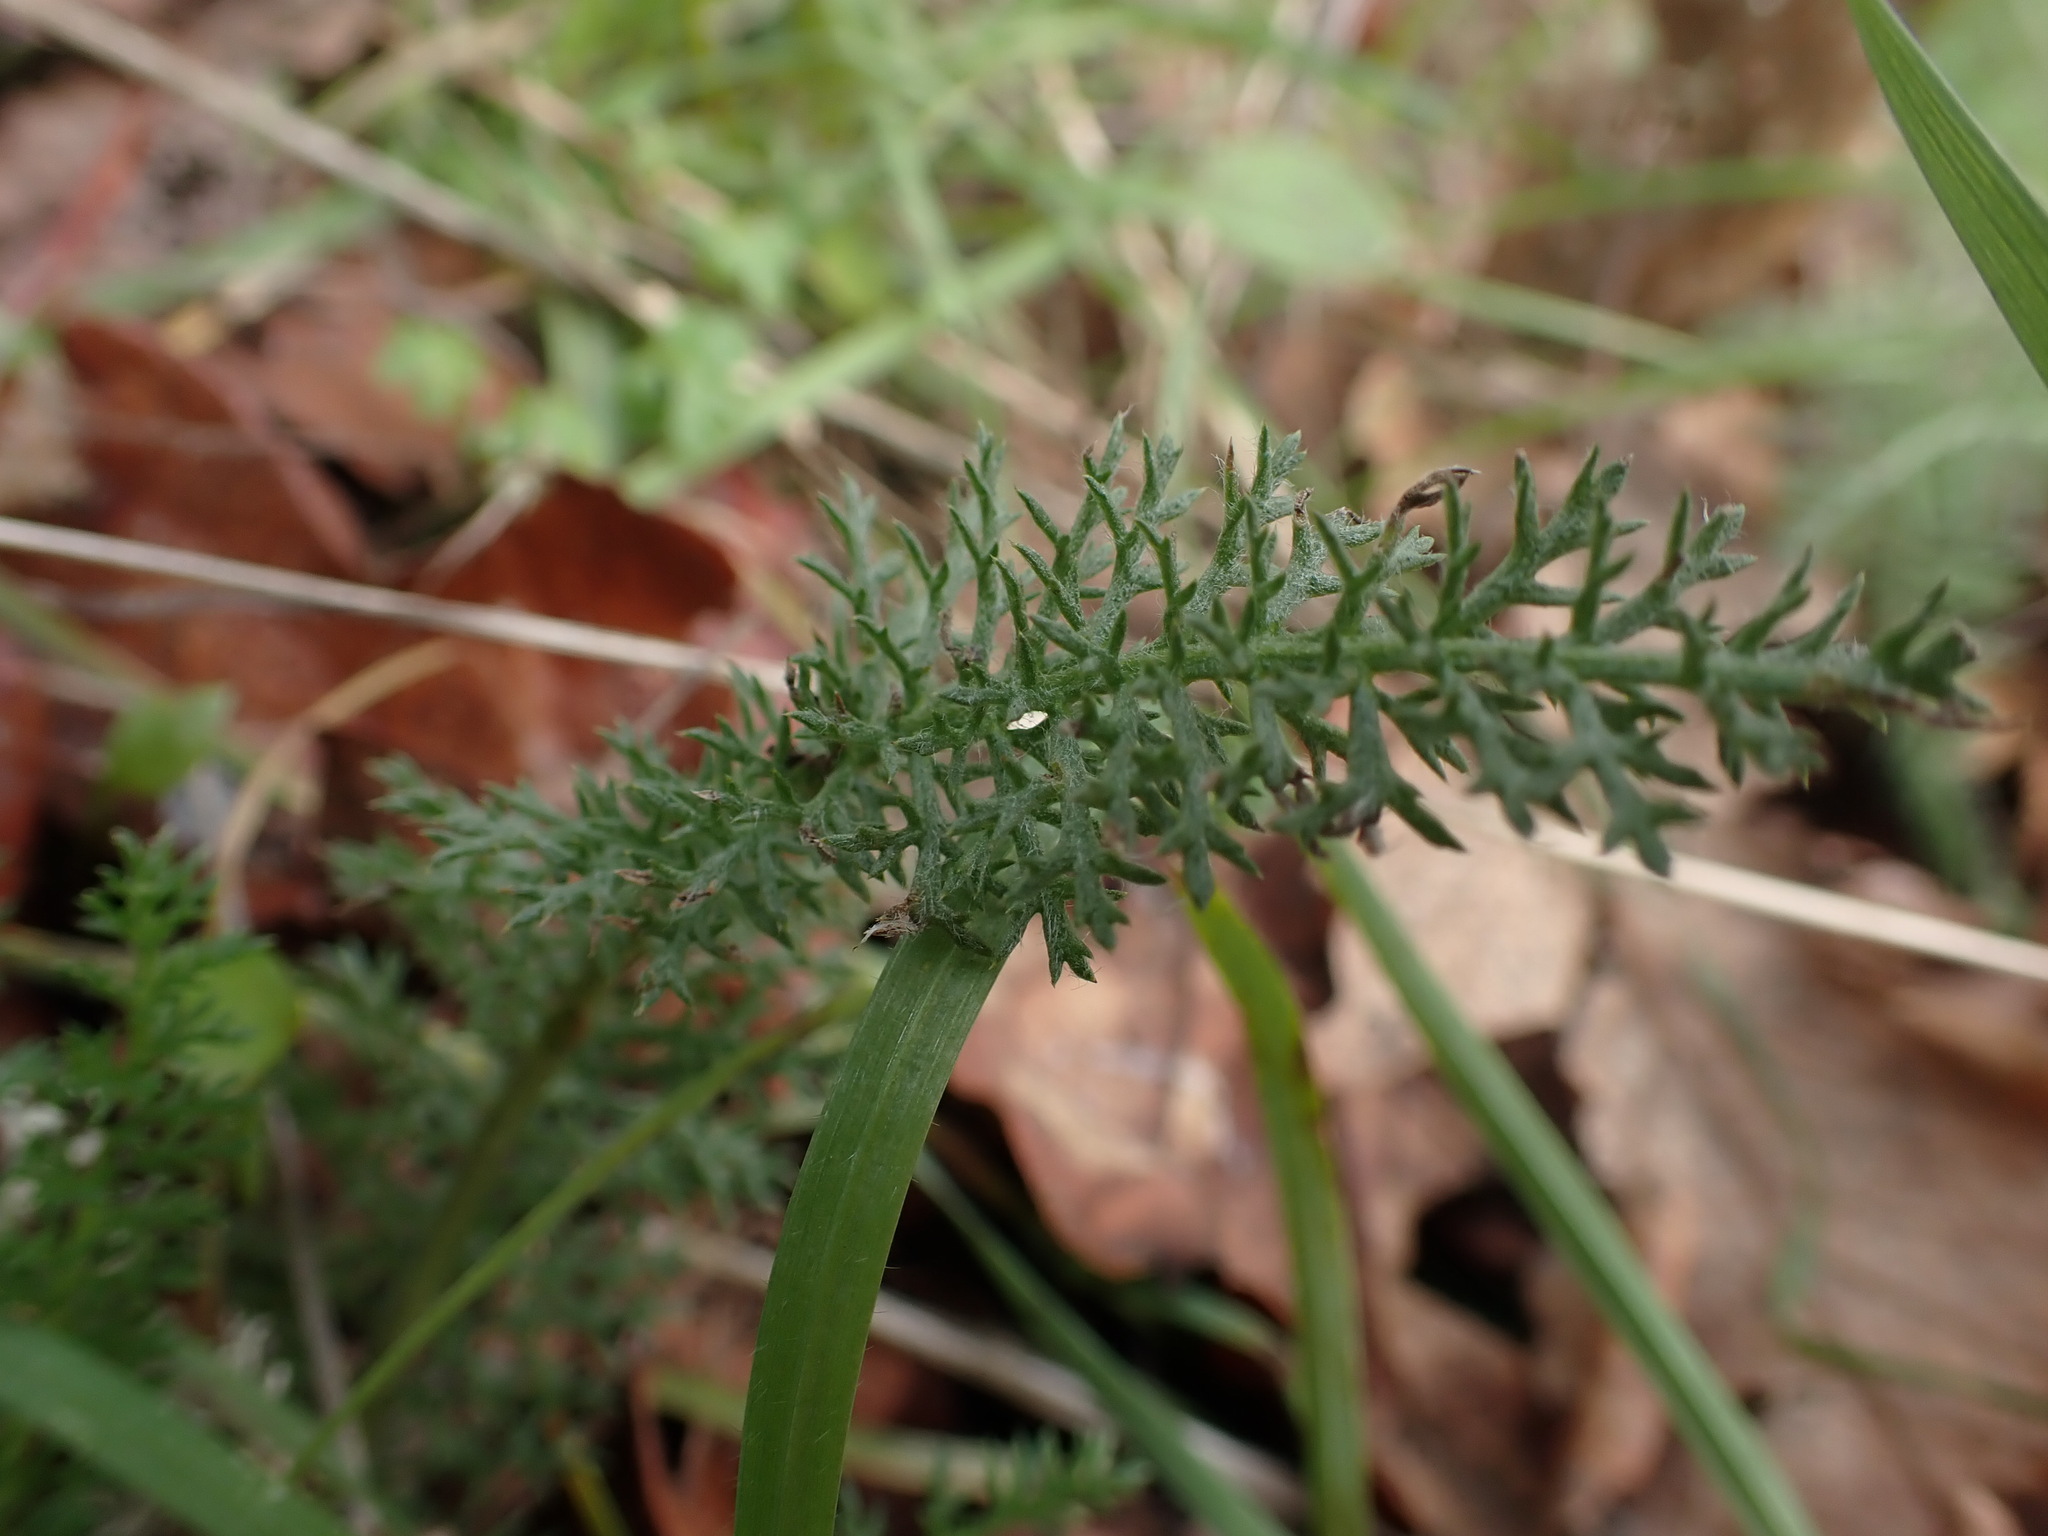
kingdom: Plantae
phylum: Tracheophyta
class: Magnoliopsida
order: Asterales
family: Asteraceae
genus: Achillea
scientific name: Achillea millefolium
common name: Yarrow
